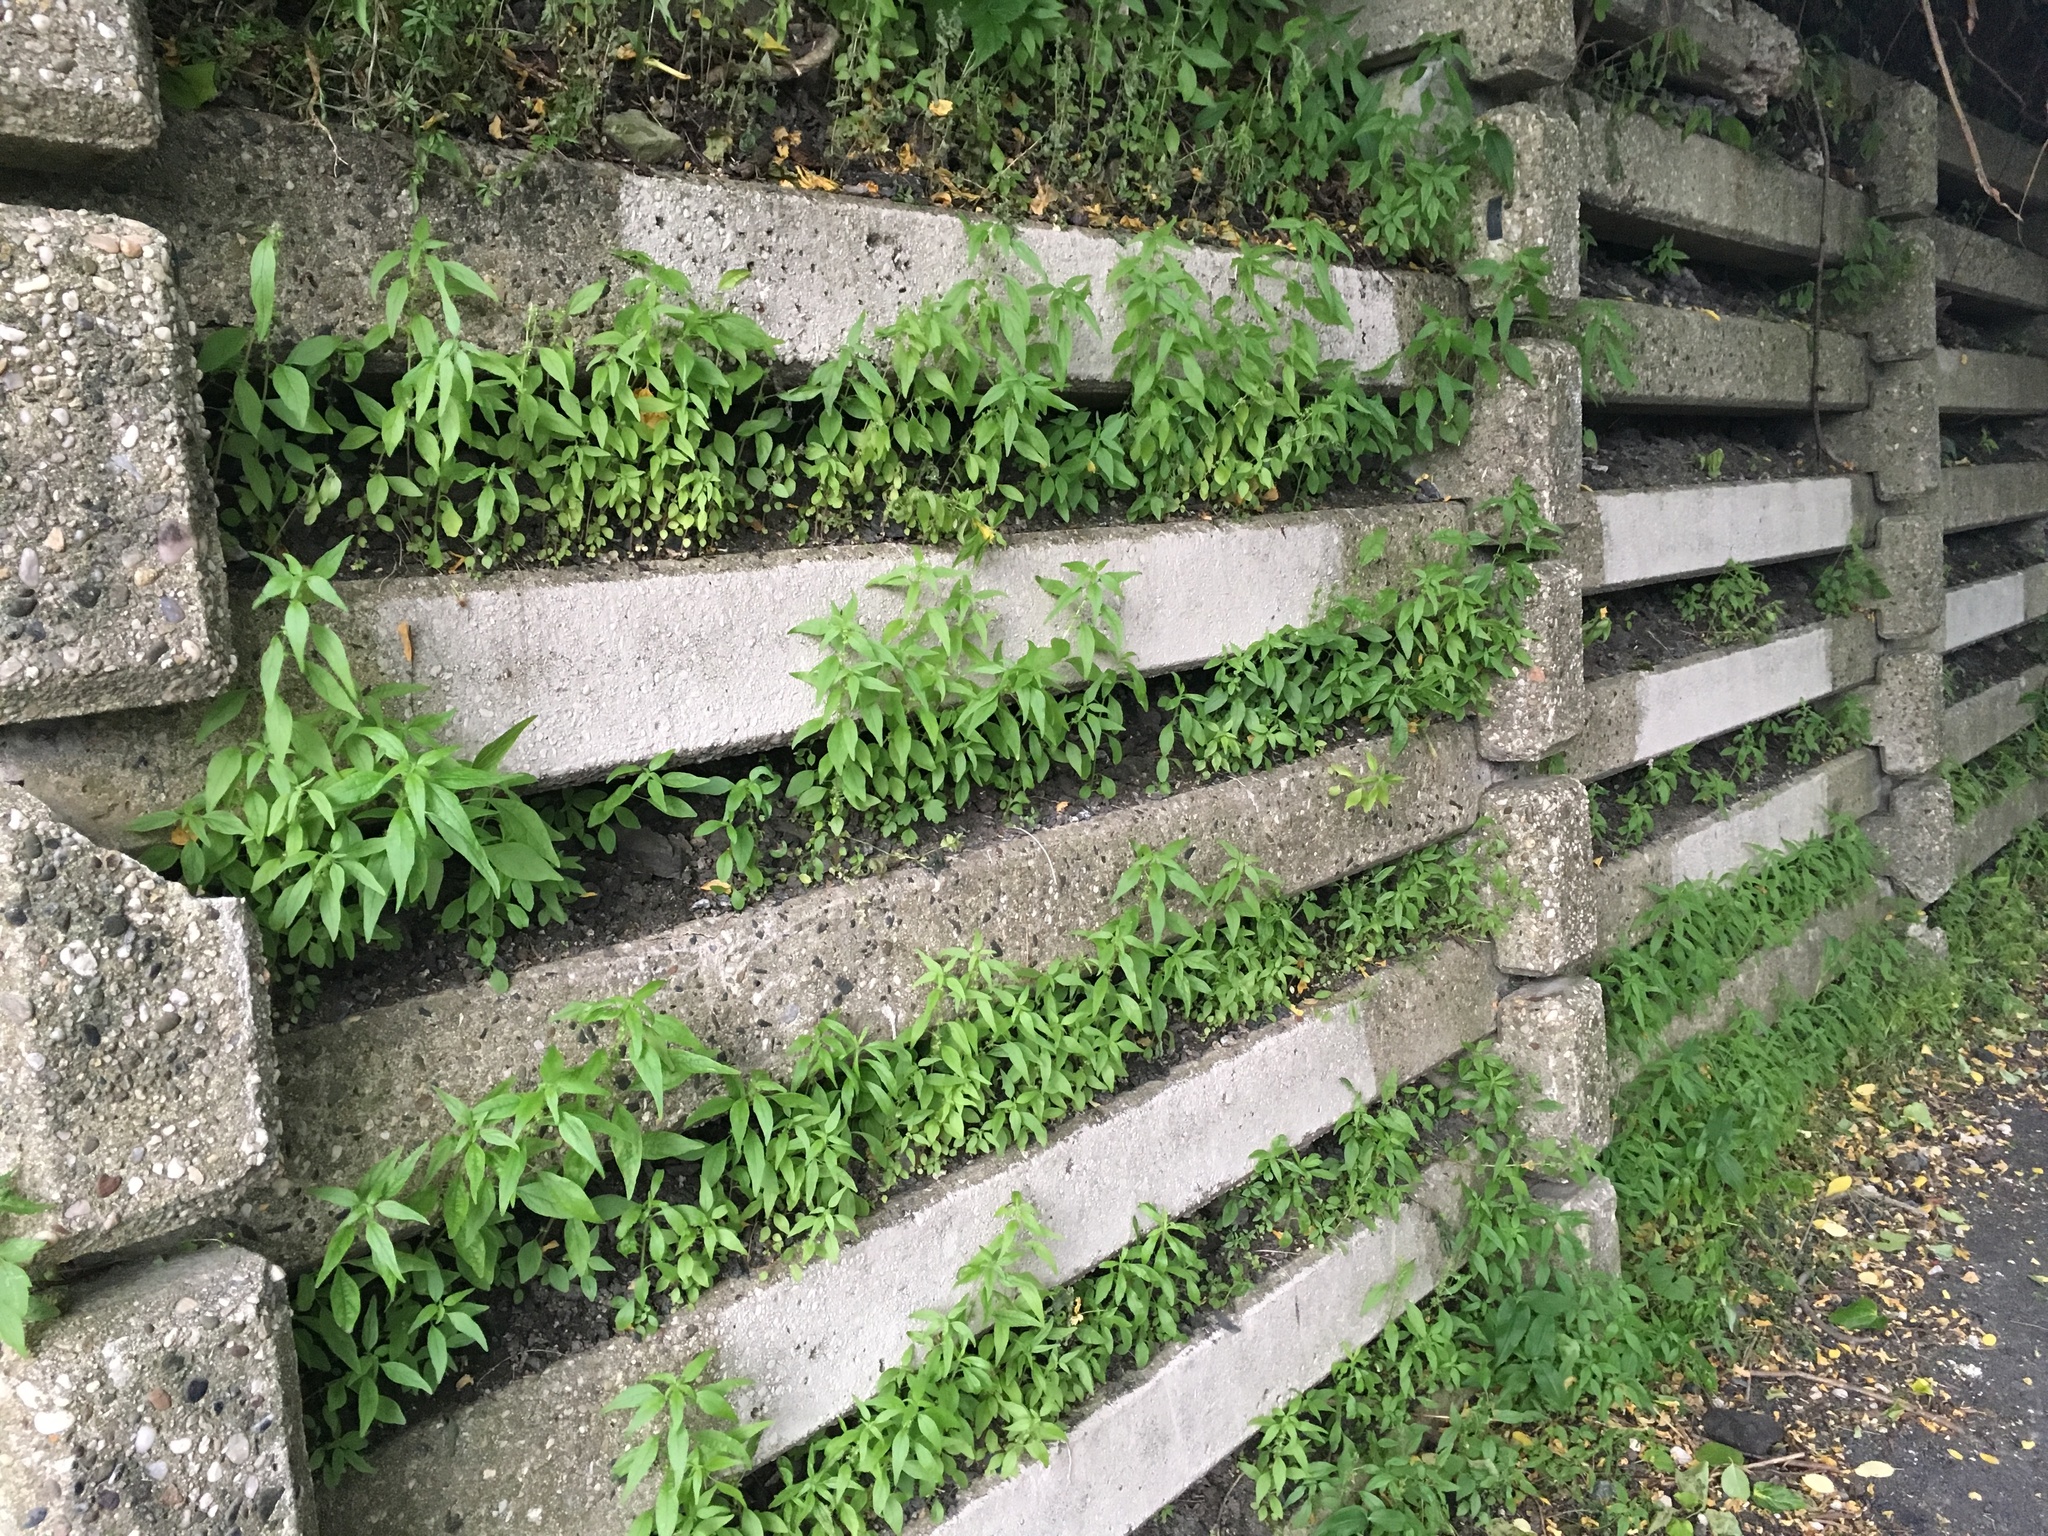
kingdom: Plantae
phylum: Tracheophyta
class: Magnoliopsida
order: Rosales
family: Urticaceae
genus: Parietaria
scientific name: Parietaria pensylvanica
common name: Pennsylvania pellitory
